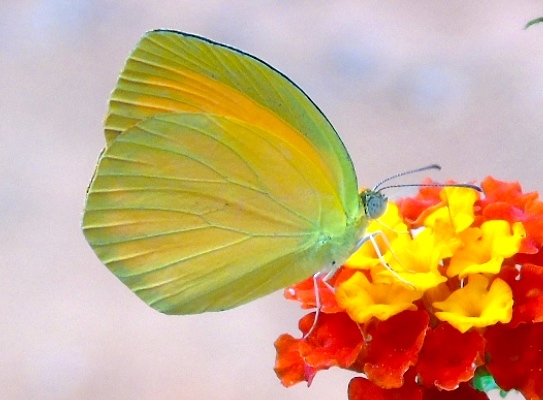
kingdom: Animalia
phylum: Arthropoda
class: Insecta
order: Lepidoptera
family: Pieridae
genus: Pyrisitia
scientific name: Pyrisitia proterpia
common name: Tailed orange
